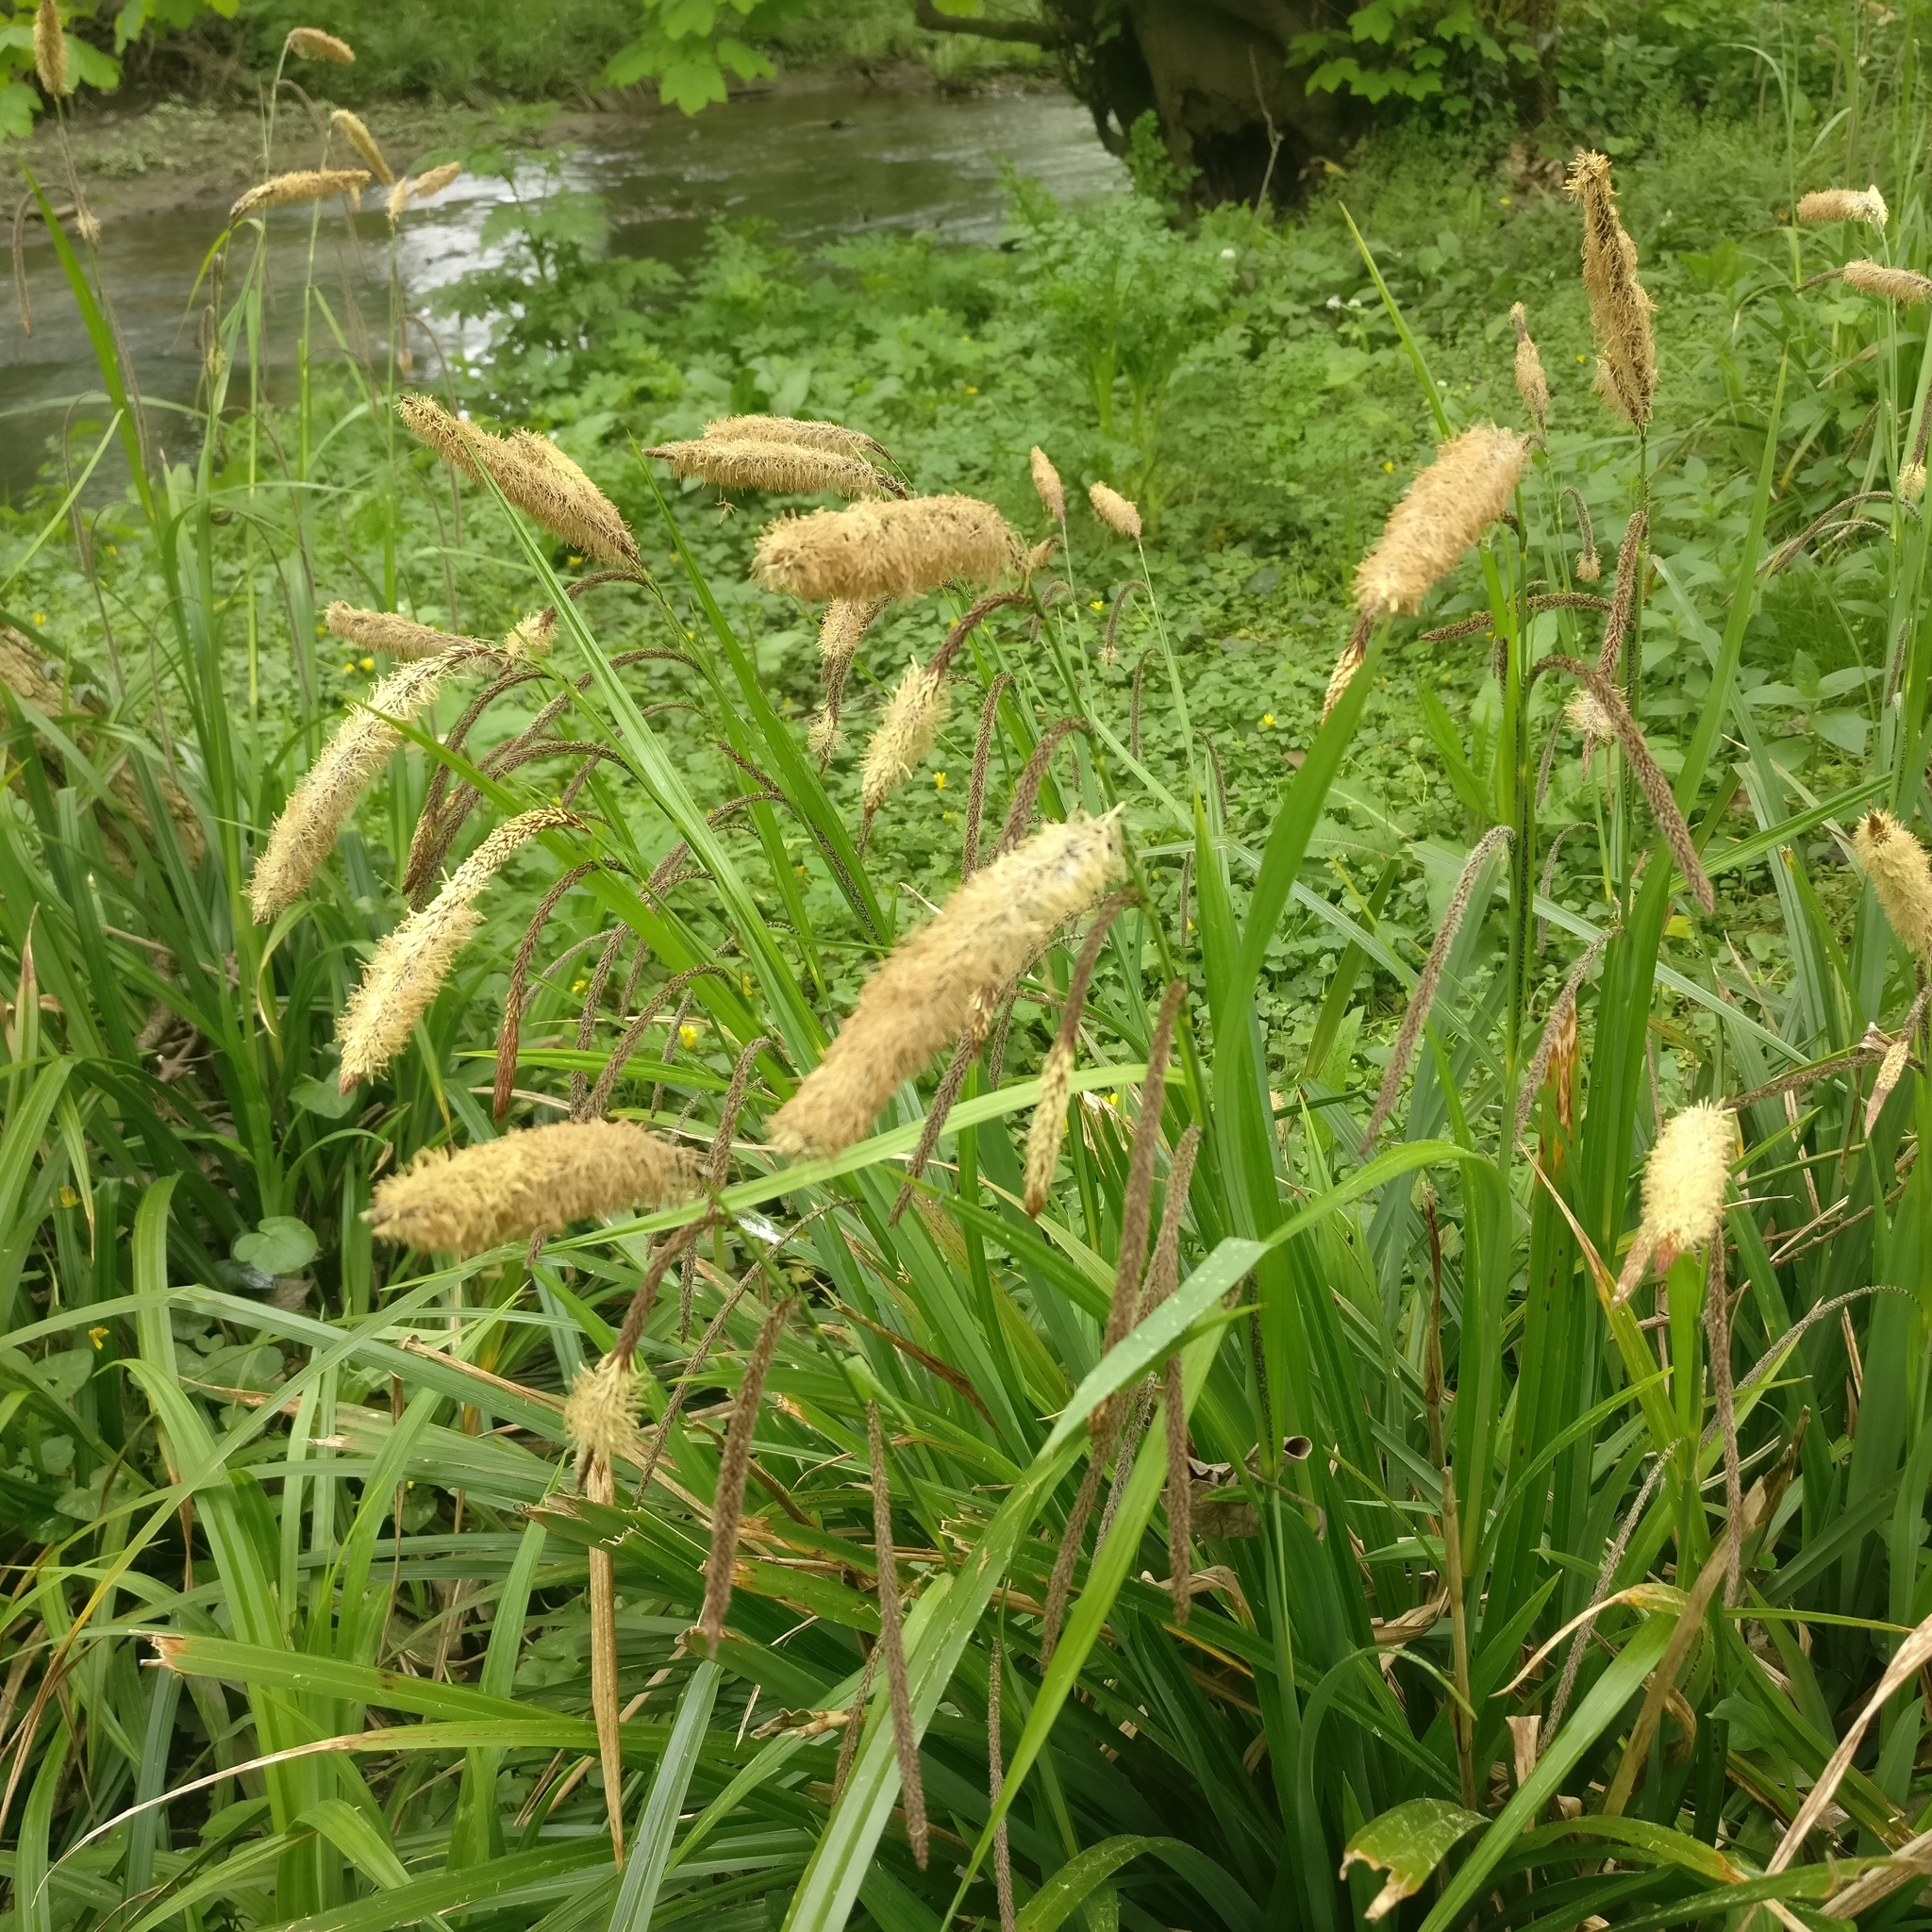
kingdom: Plantae
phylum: Tracheophyta
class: Liliopsida
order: Poales
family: Cyperaceae
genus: Carex
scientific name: Carex pendula
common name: Pendulous sedge
